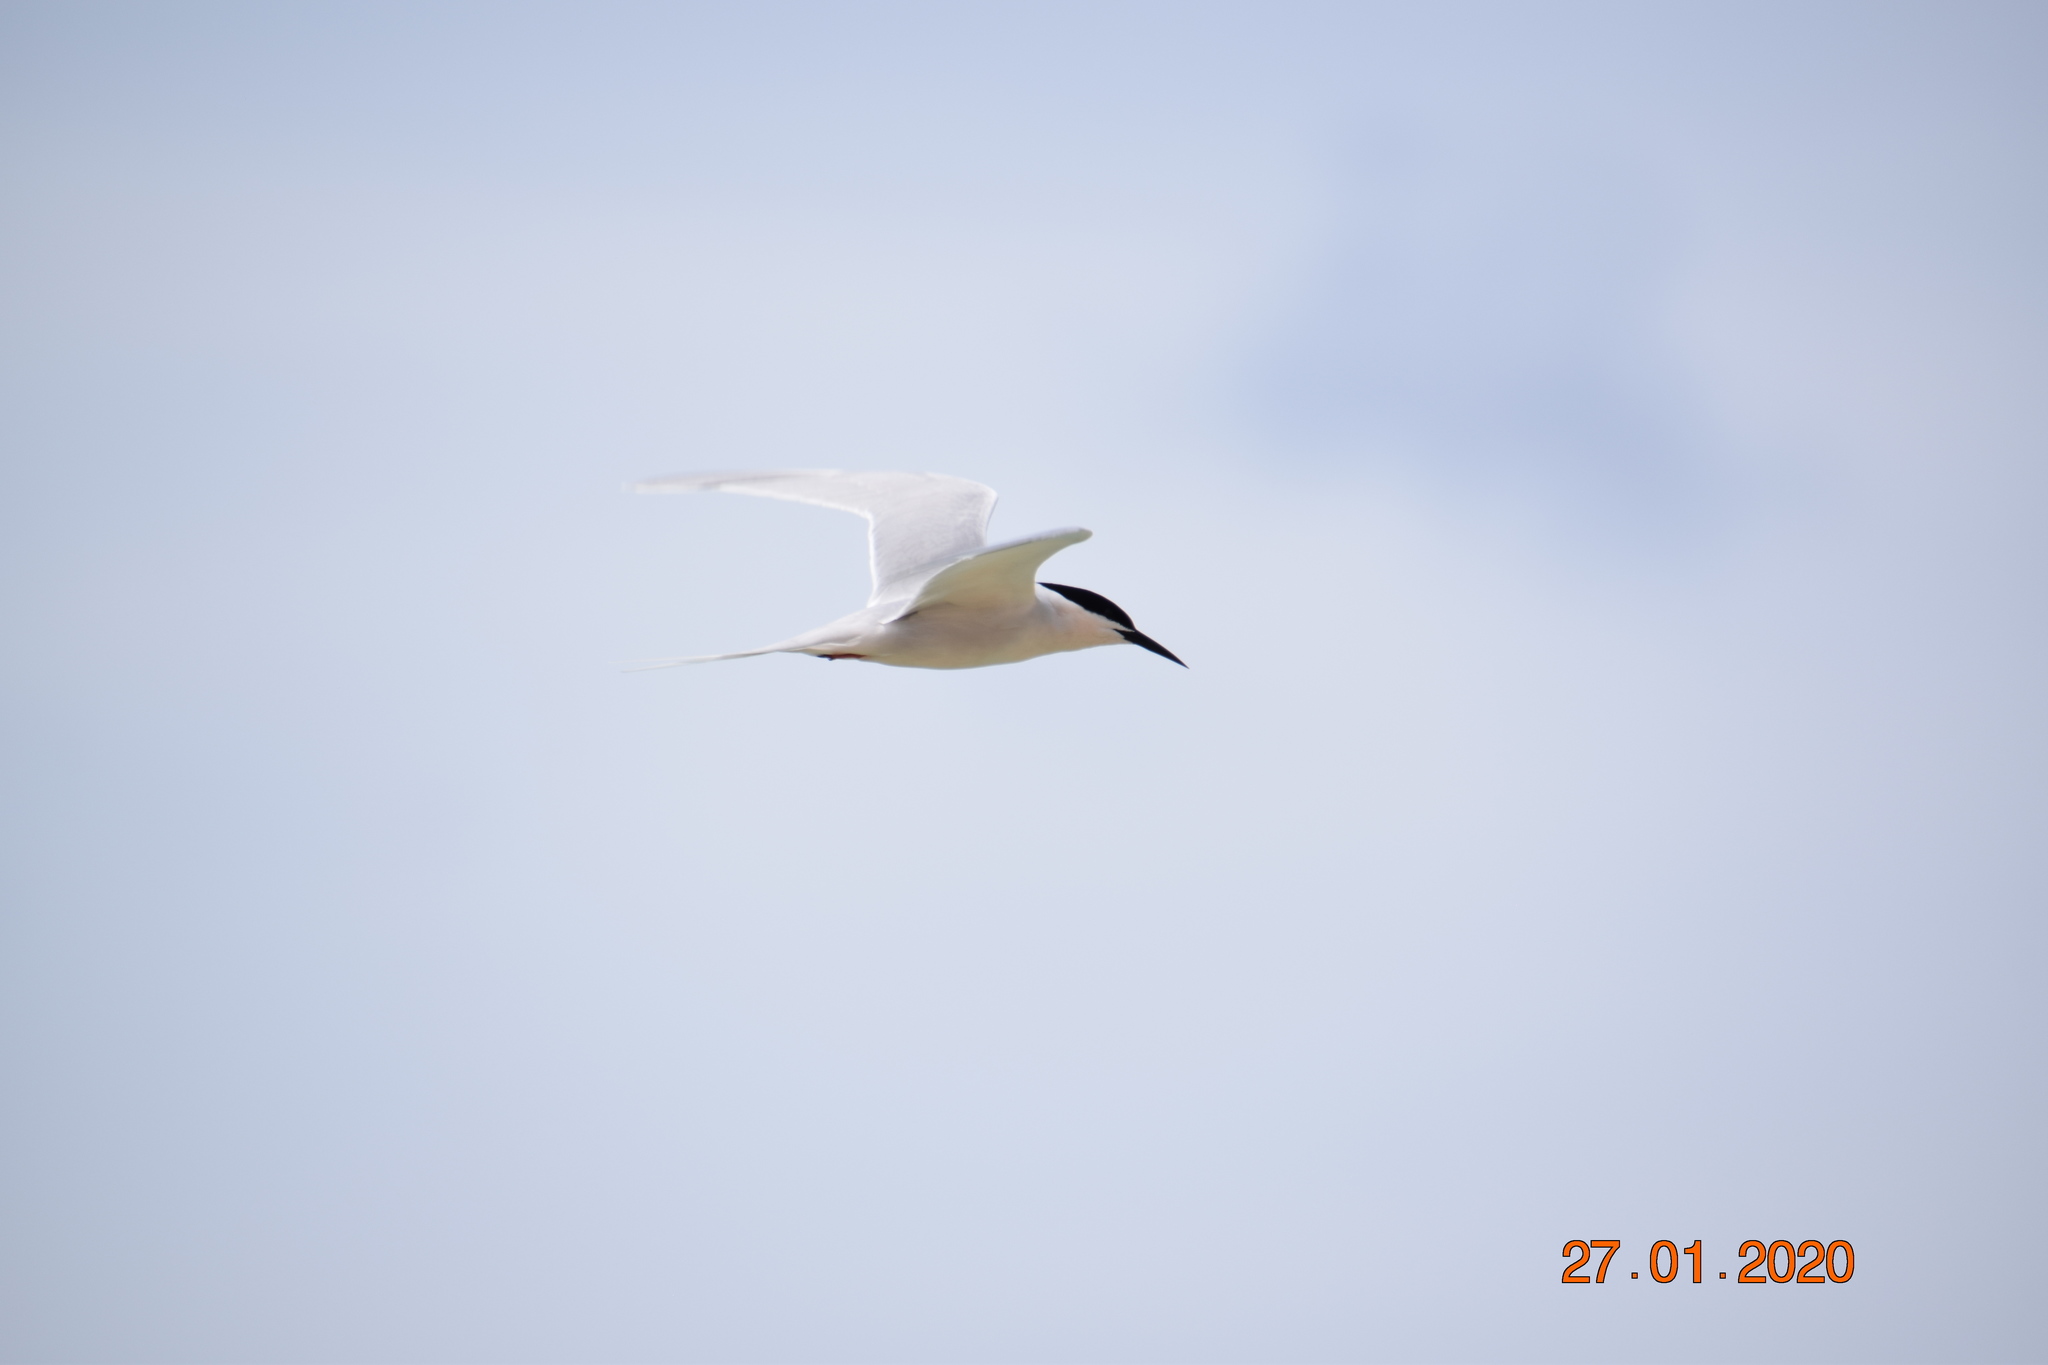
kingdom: Animalia
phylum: Chordata
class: Aves
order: Charadriiformes
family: Laridae
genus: Sterna
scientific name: Sterna dougallii
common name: Roseate tern
